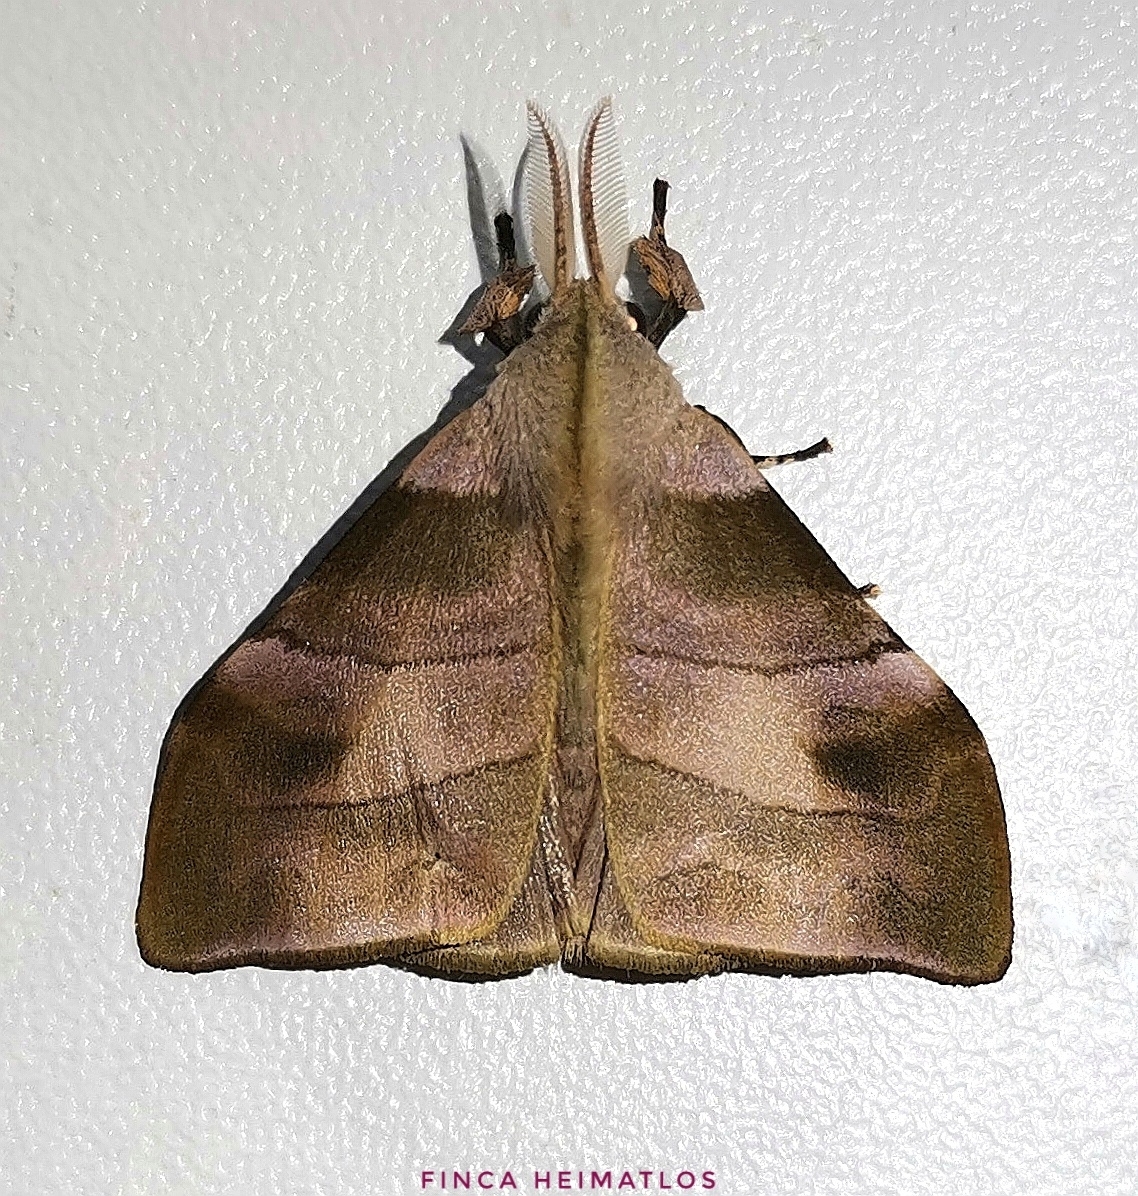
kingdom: Animalia
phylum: Arthropoda
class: Insecta
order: Lepidoptera
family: Erebidae
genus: Sarsina
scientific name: Sarsina purpurascens
